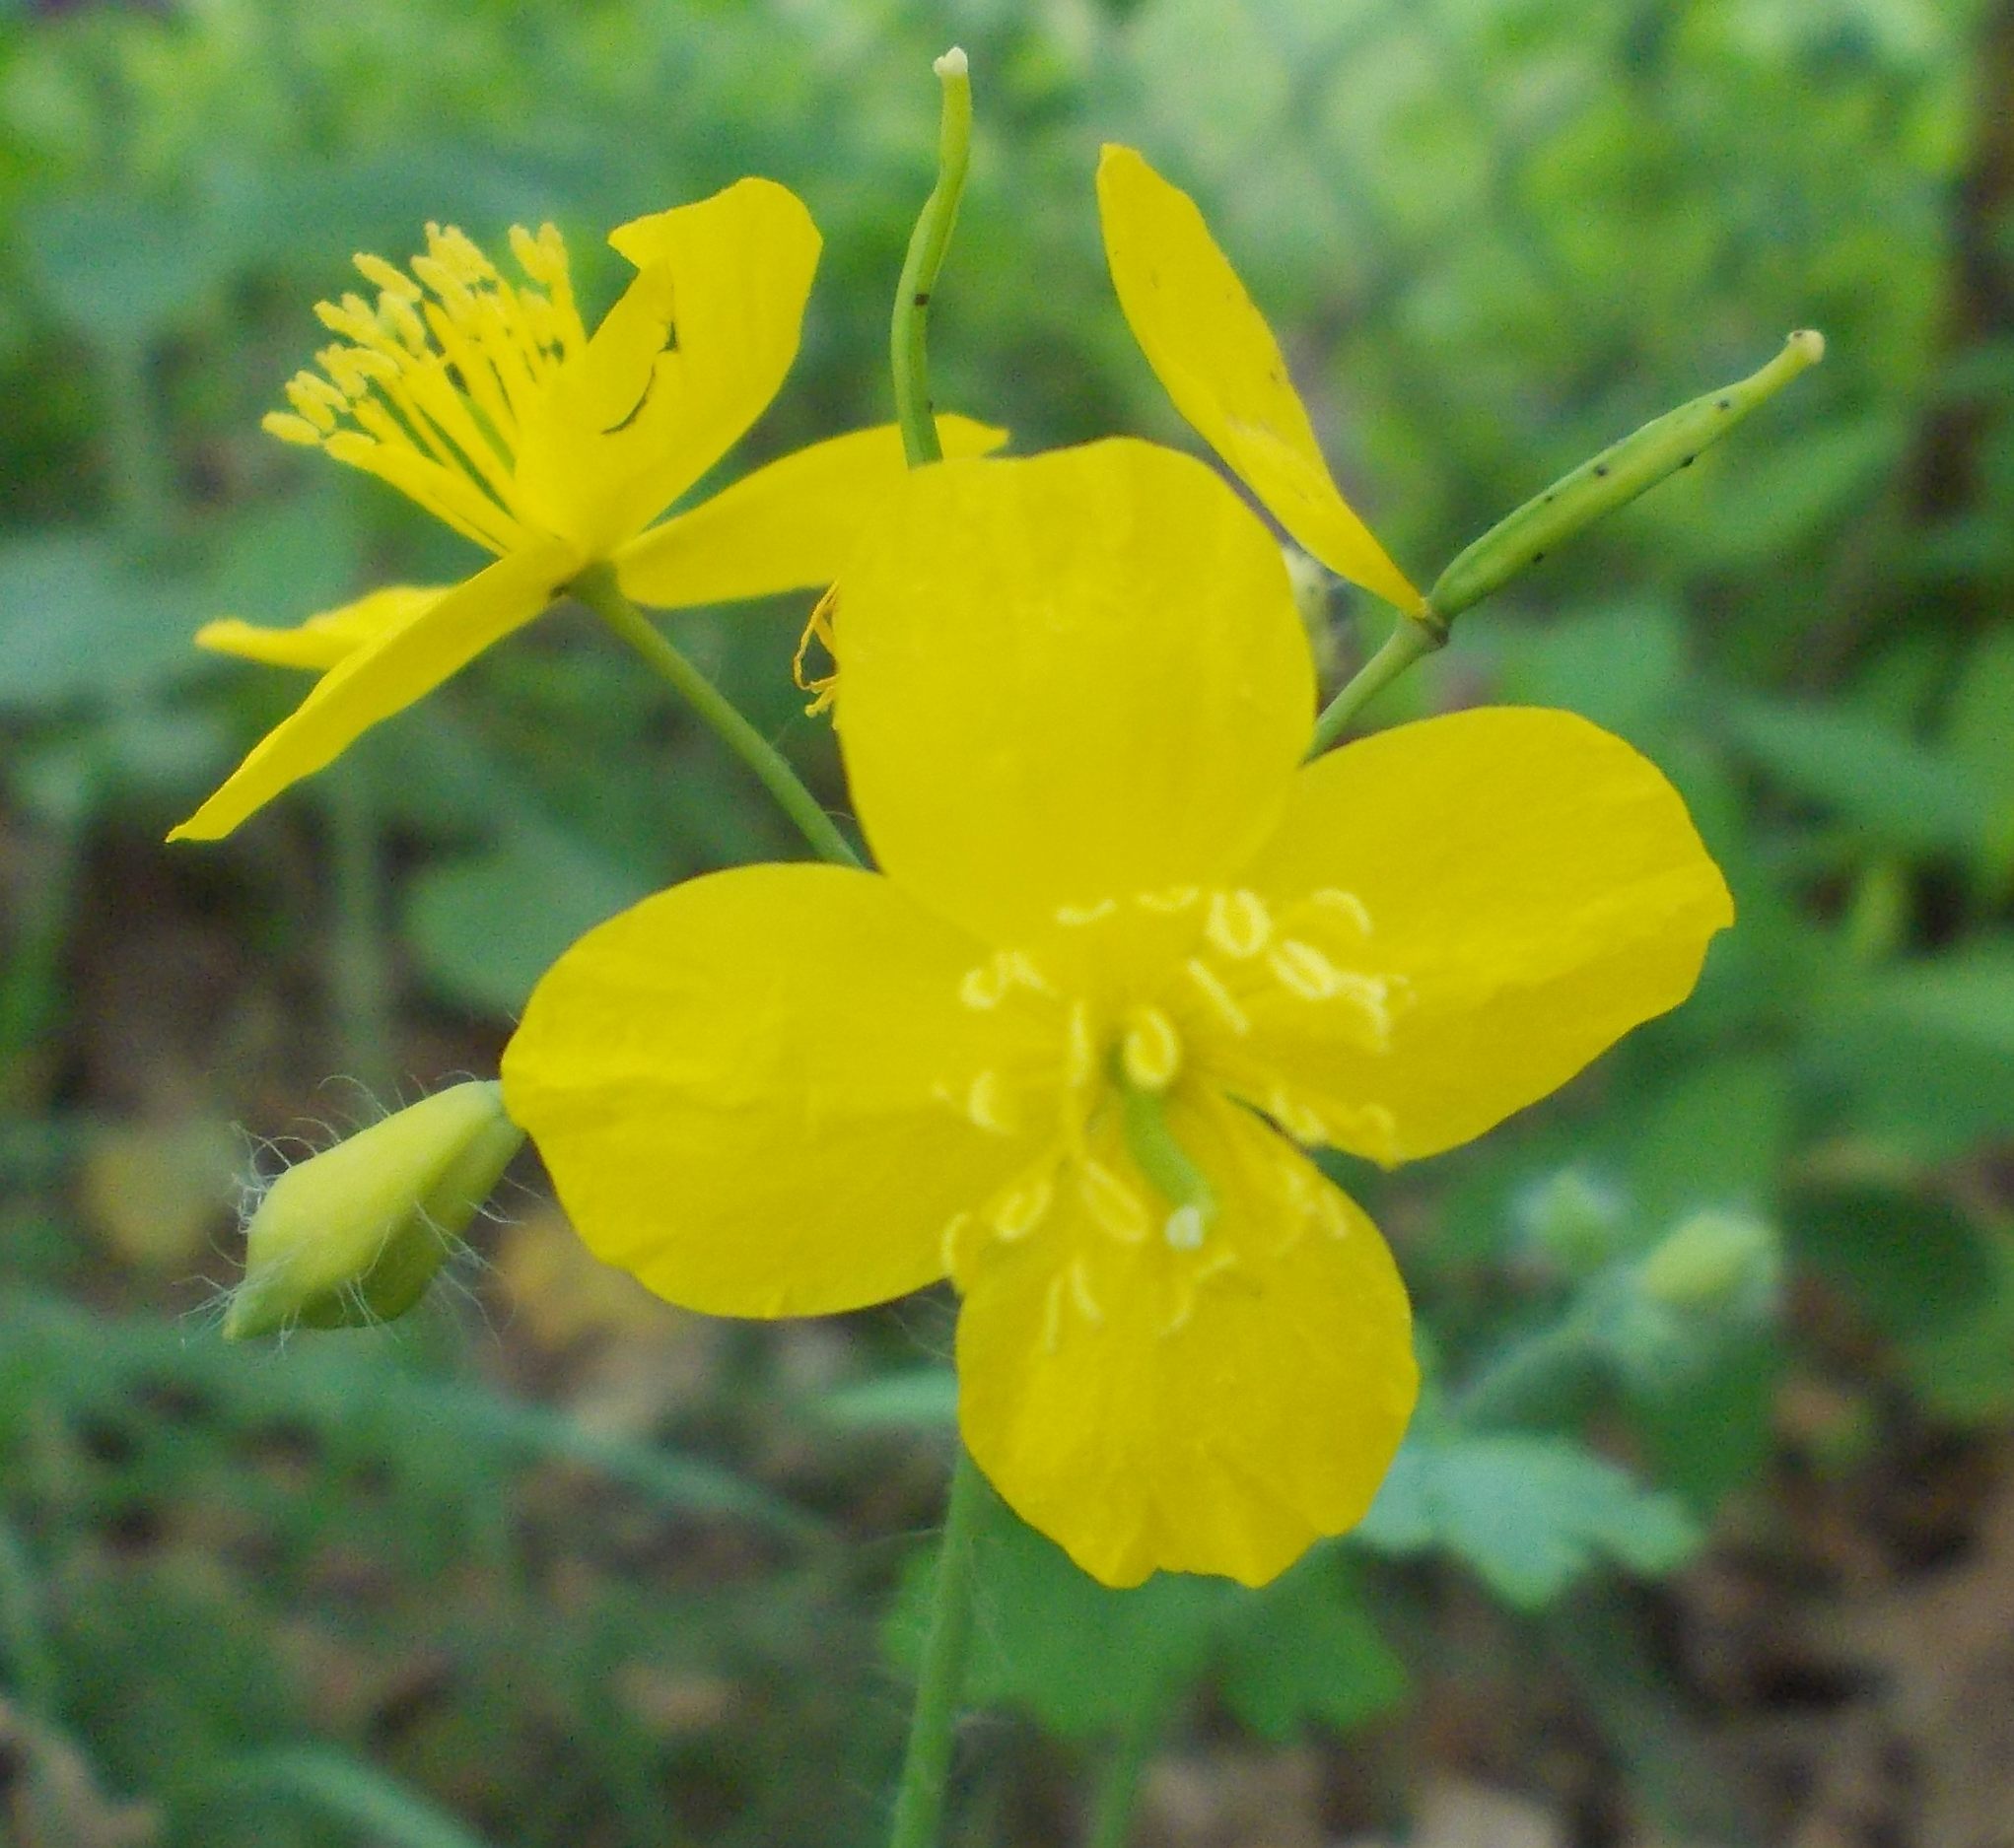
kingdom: Plantae
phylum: Tracheophyta
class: Magnoliopsida
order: Ranunculales
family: Papaveraceae
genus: Chelidonium
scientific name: Chelidonium majus
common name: Greater celandine
